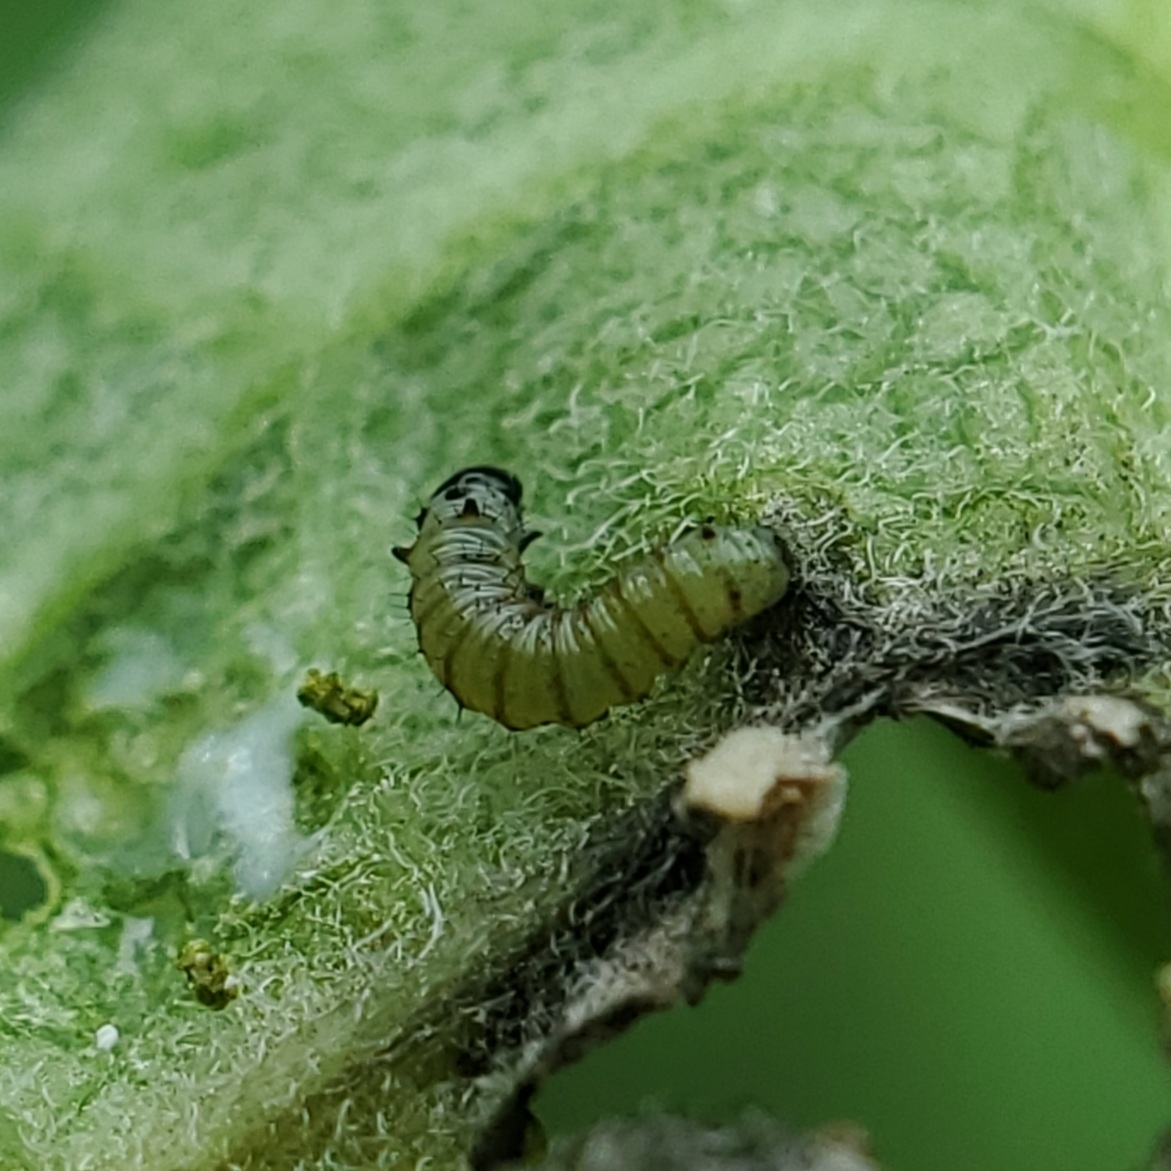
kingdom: Animalia
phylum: Arthropoda
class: Insecta
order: Lepidoptera
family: Nymphalidae
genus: Danaus
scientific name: Danaus plexippus
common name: Monarch
